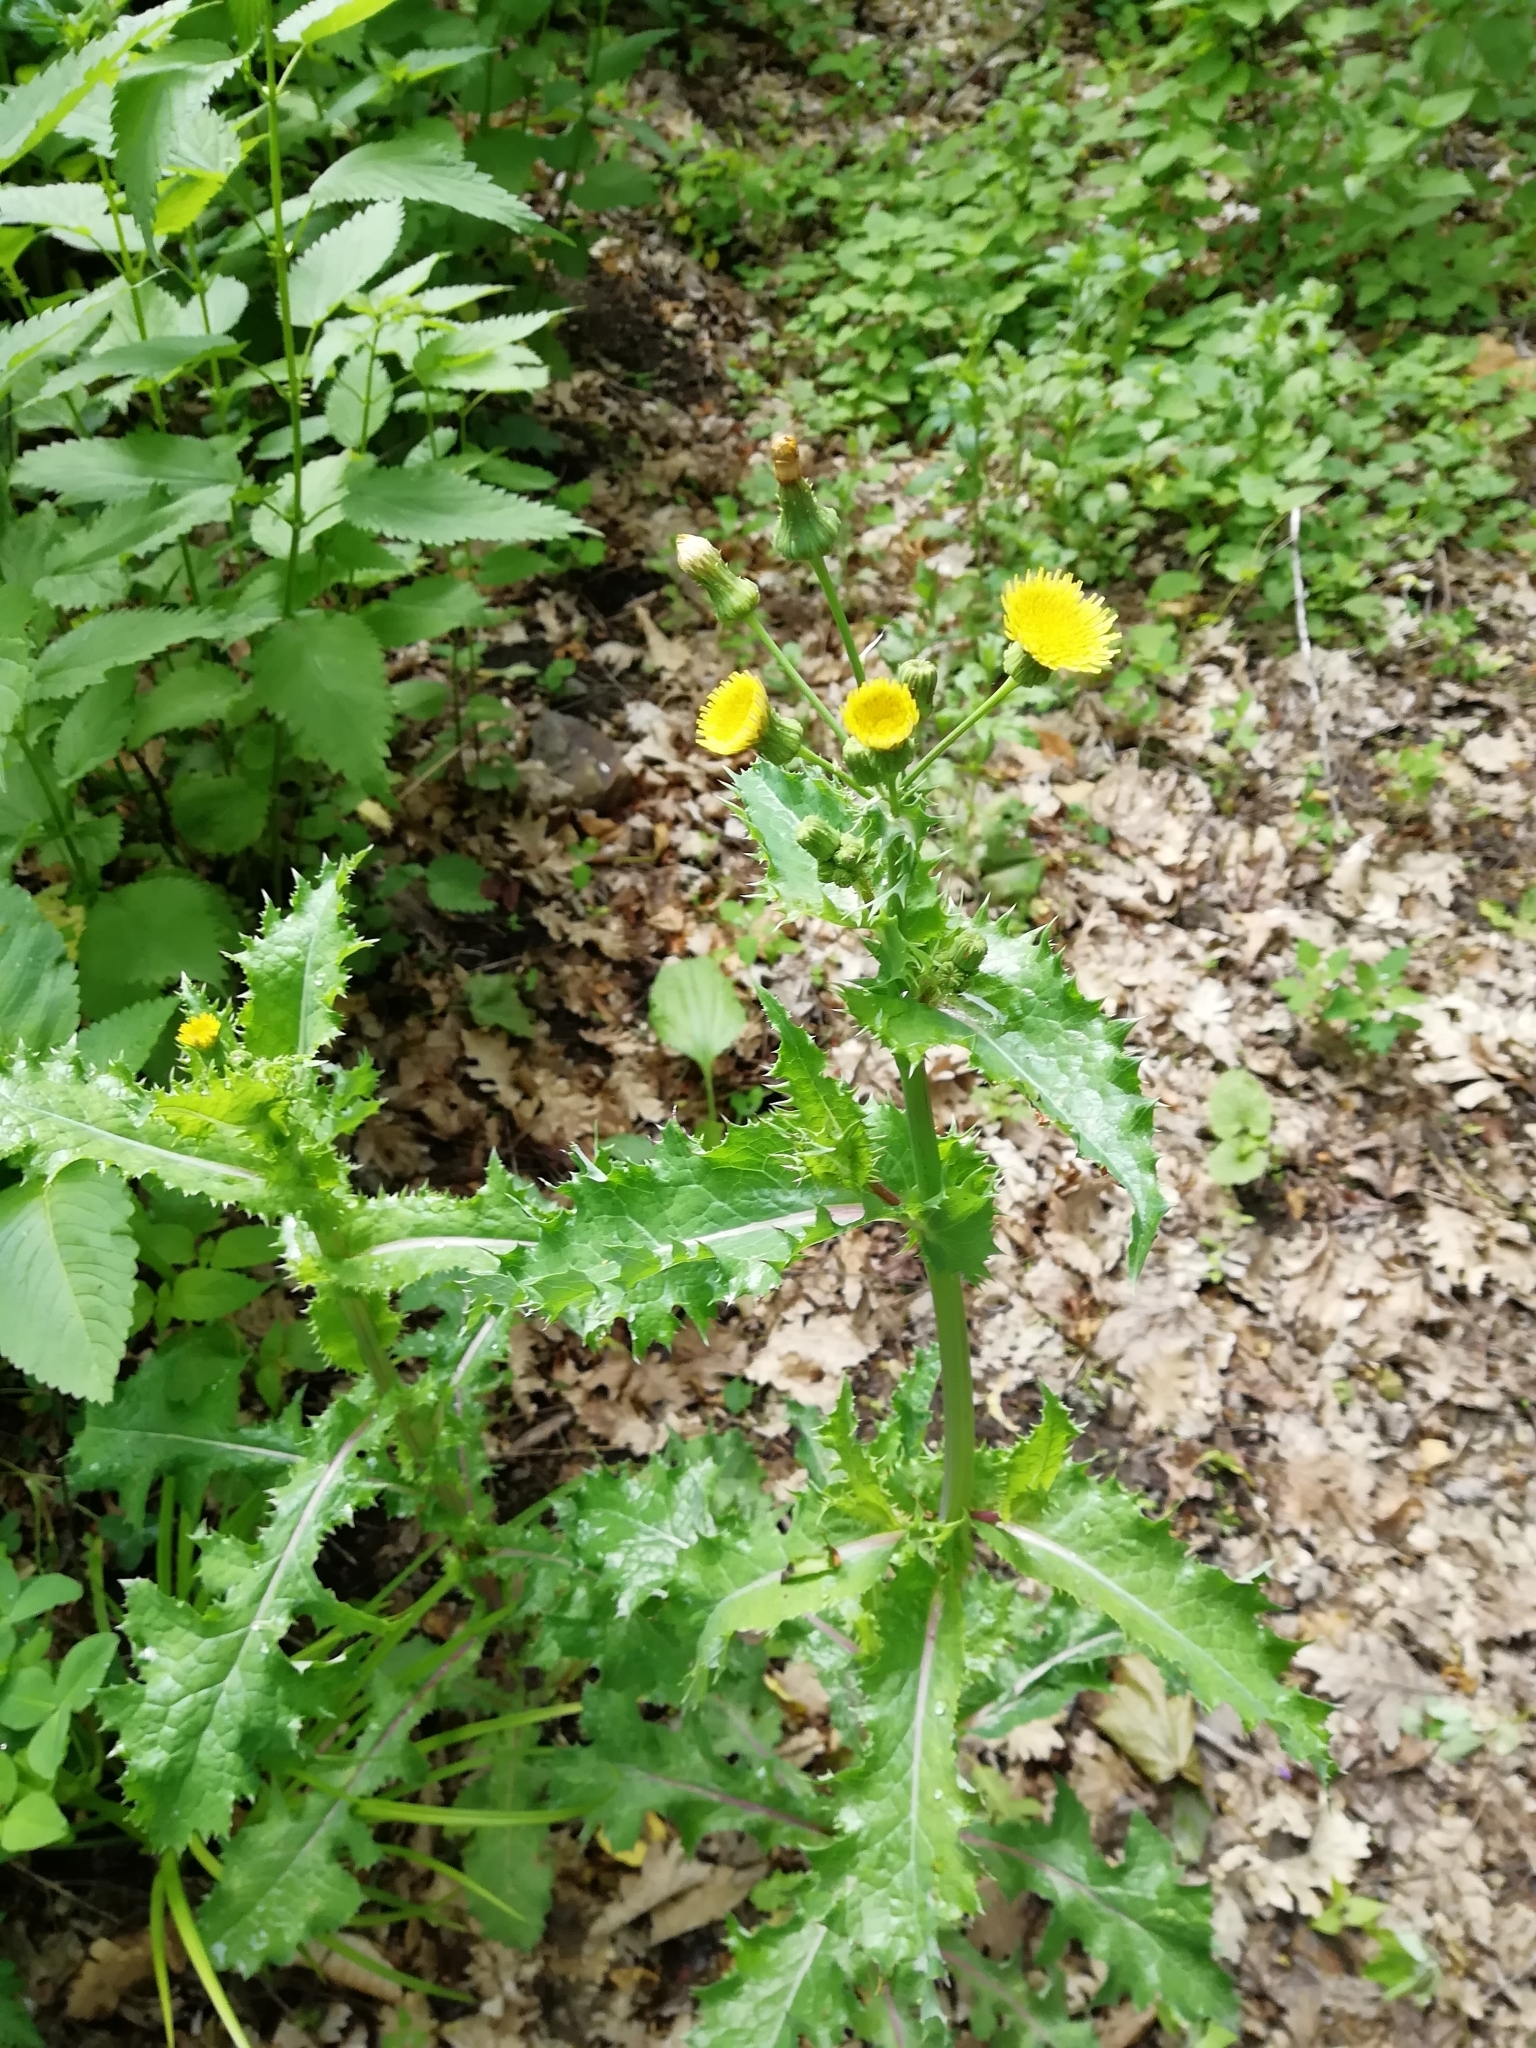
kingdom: Plantae
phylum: Tracheophyta
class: Magnoliopsida
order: Asterales
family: Asteraceae
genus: Sonchus
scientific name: Sonchus asper
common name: Prickly sow-thistle
